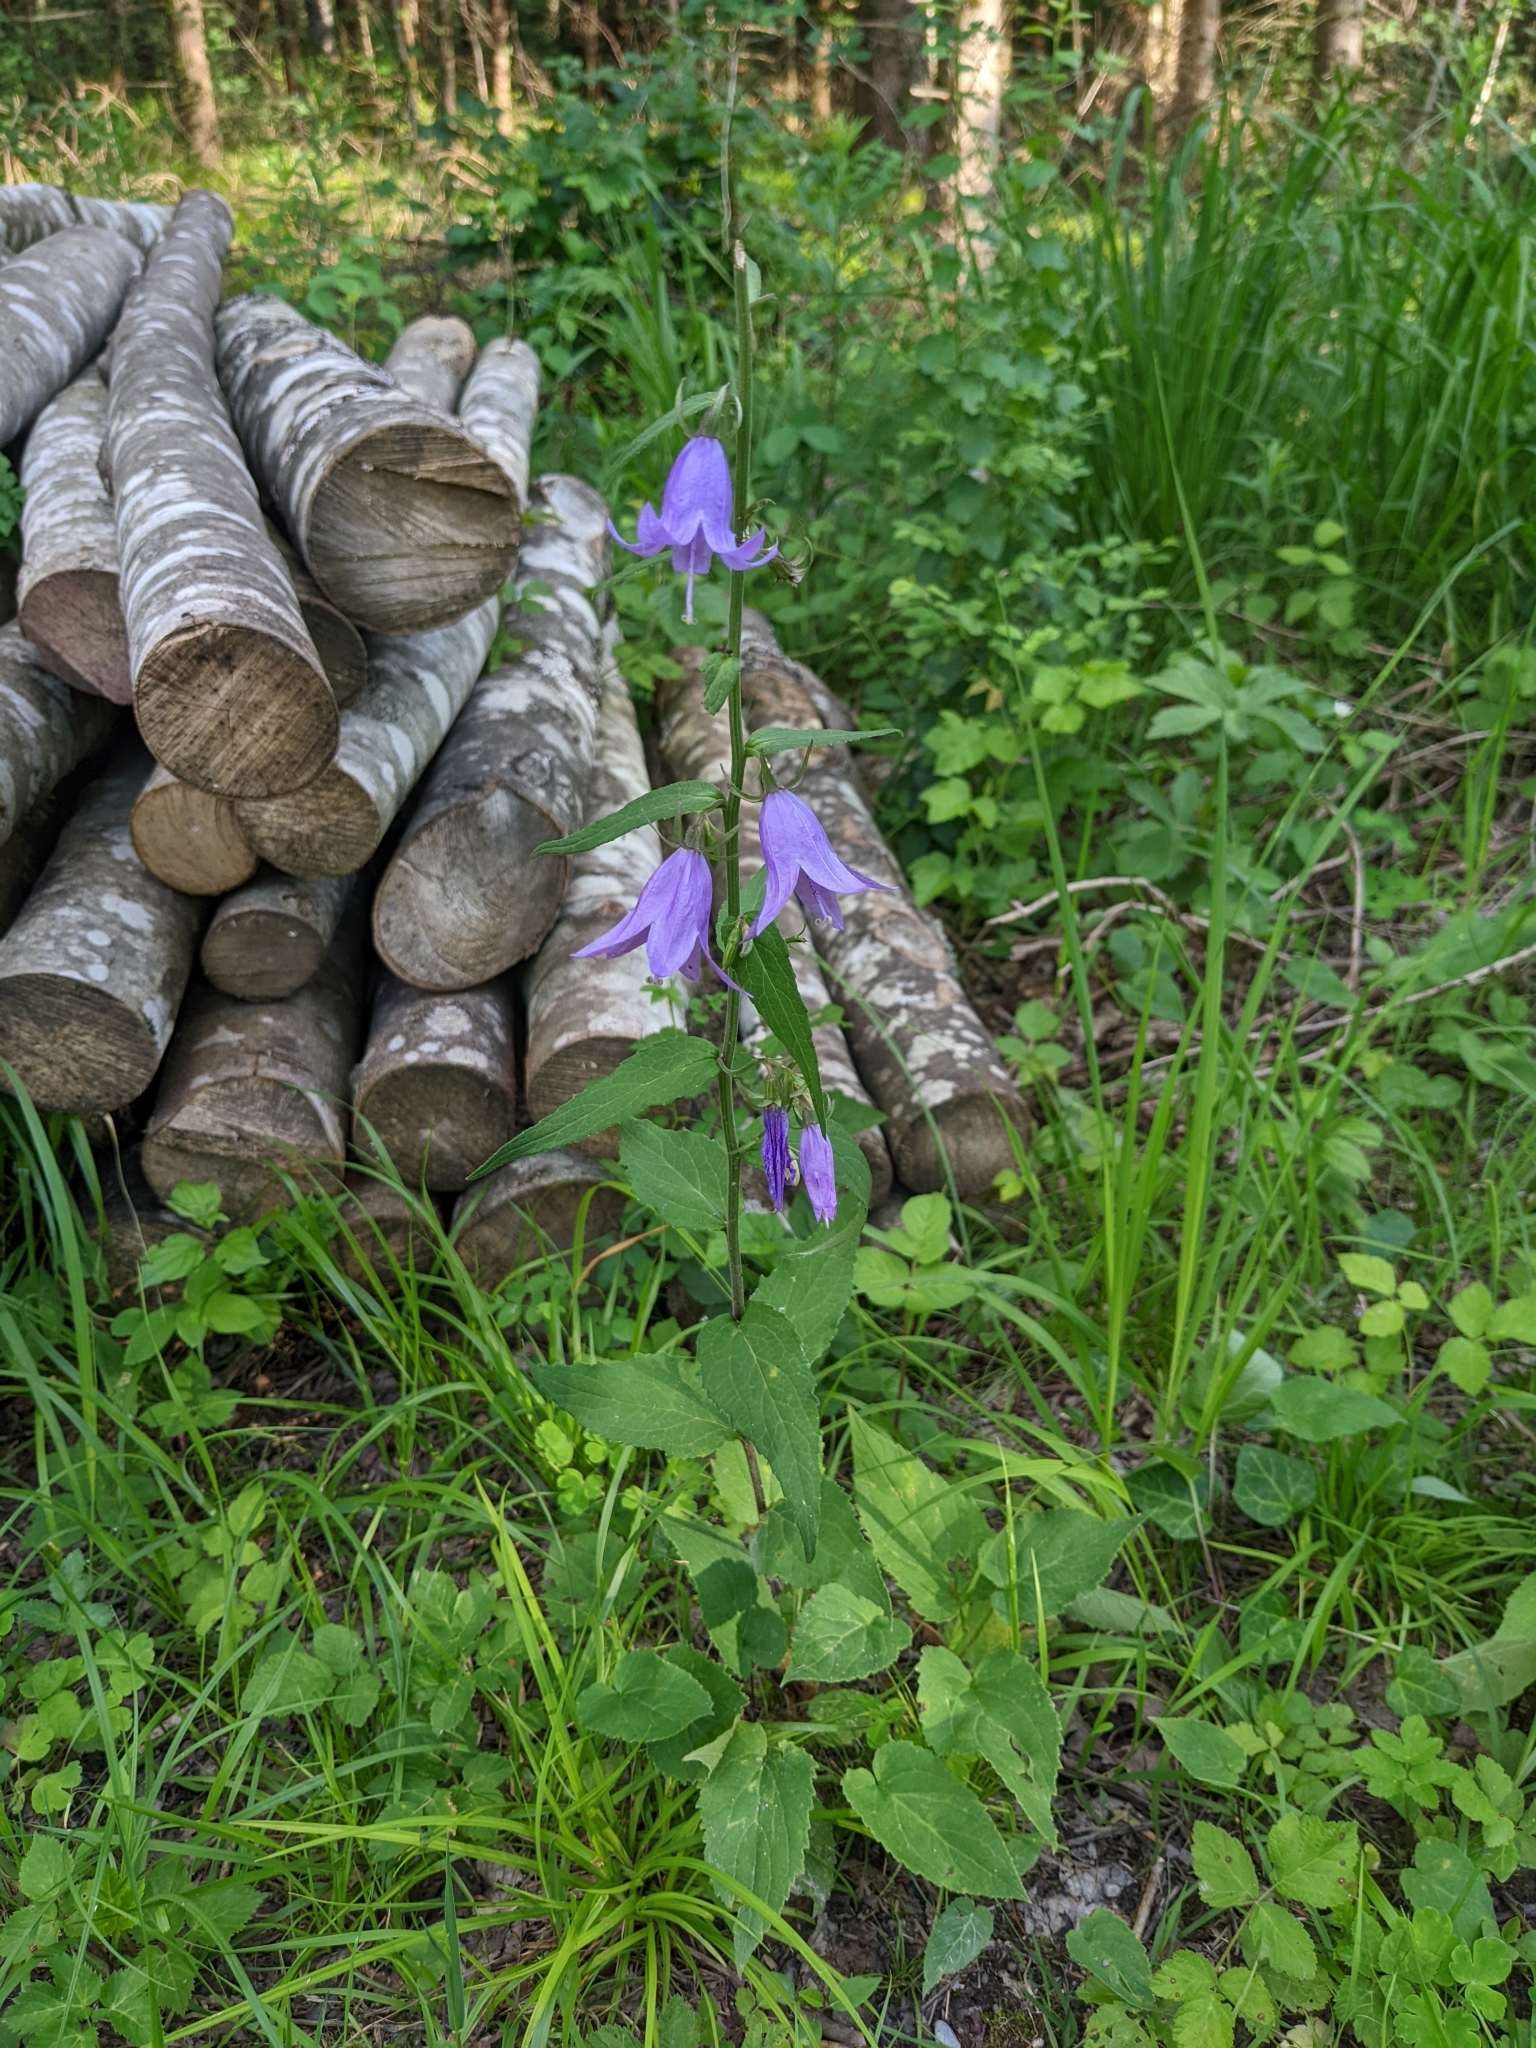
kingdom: Plantae
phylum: Tracheophyta
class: Magnoliopsida
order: Asterales
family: Campanulaceae
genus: Campanula
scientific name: Campanula rapunculoides
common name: Creeping bellflower
